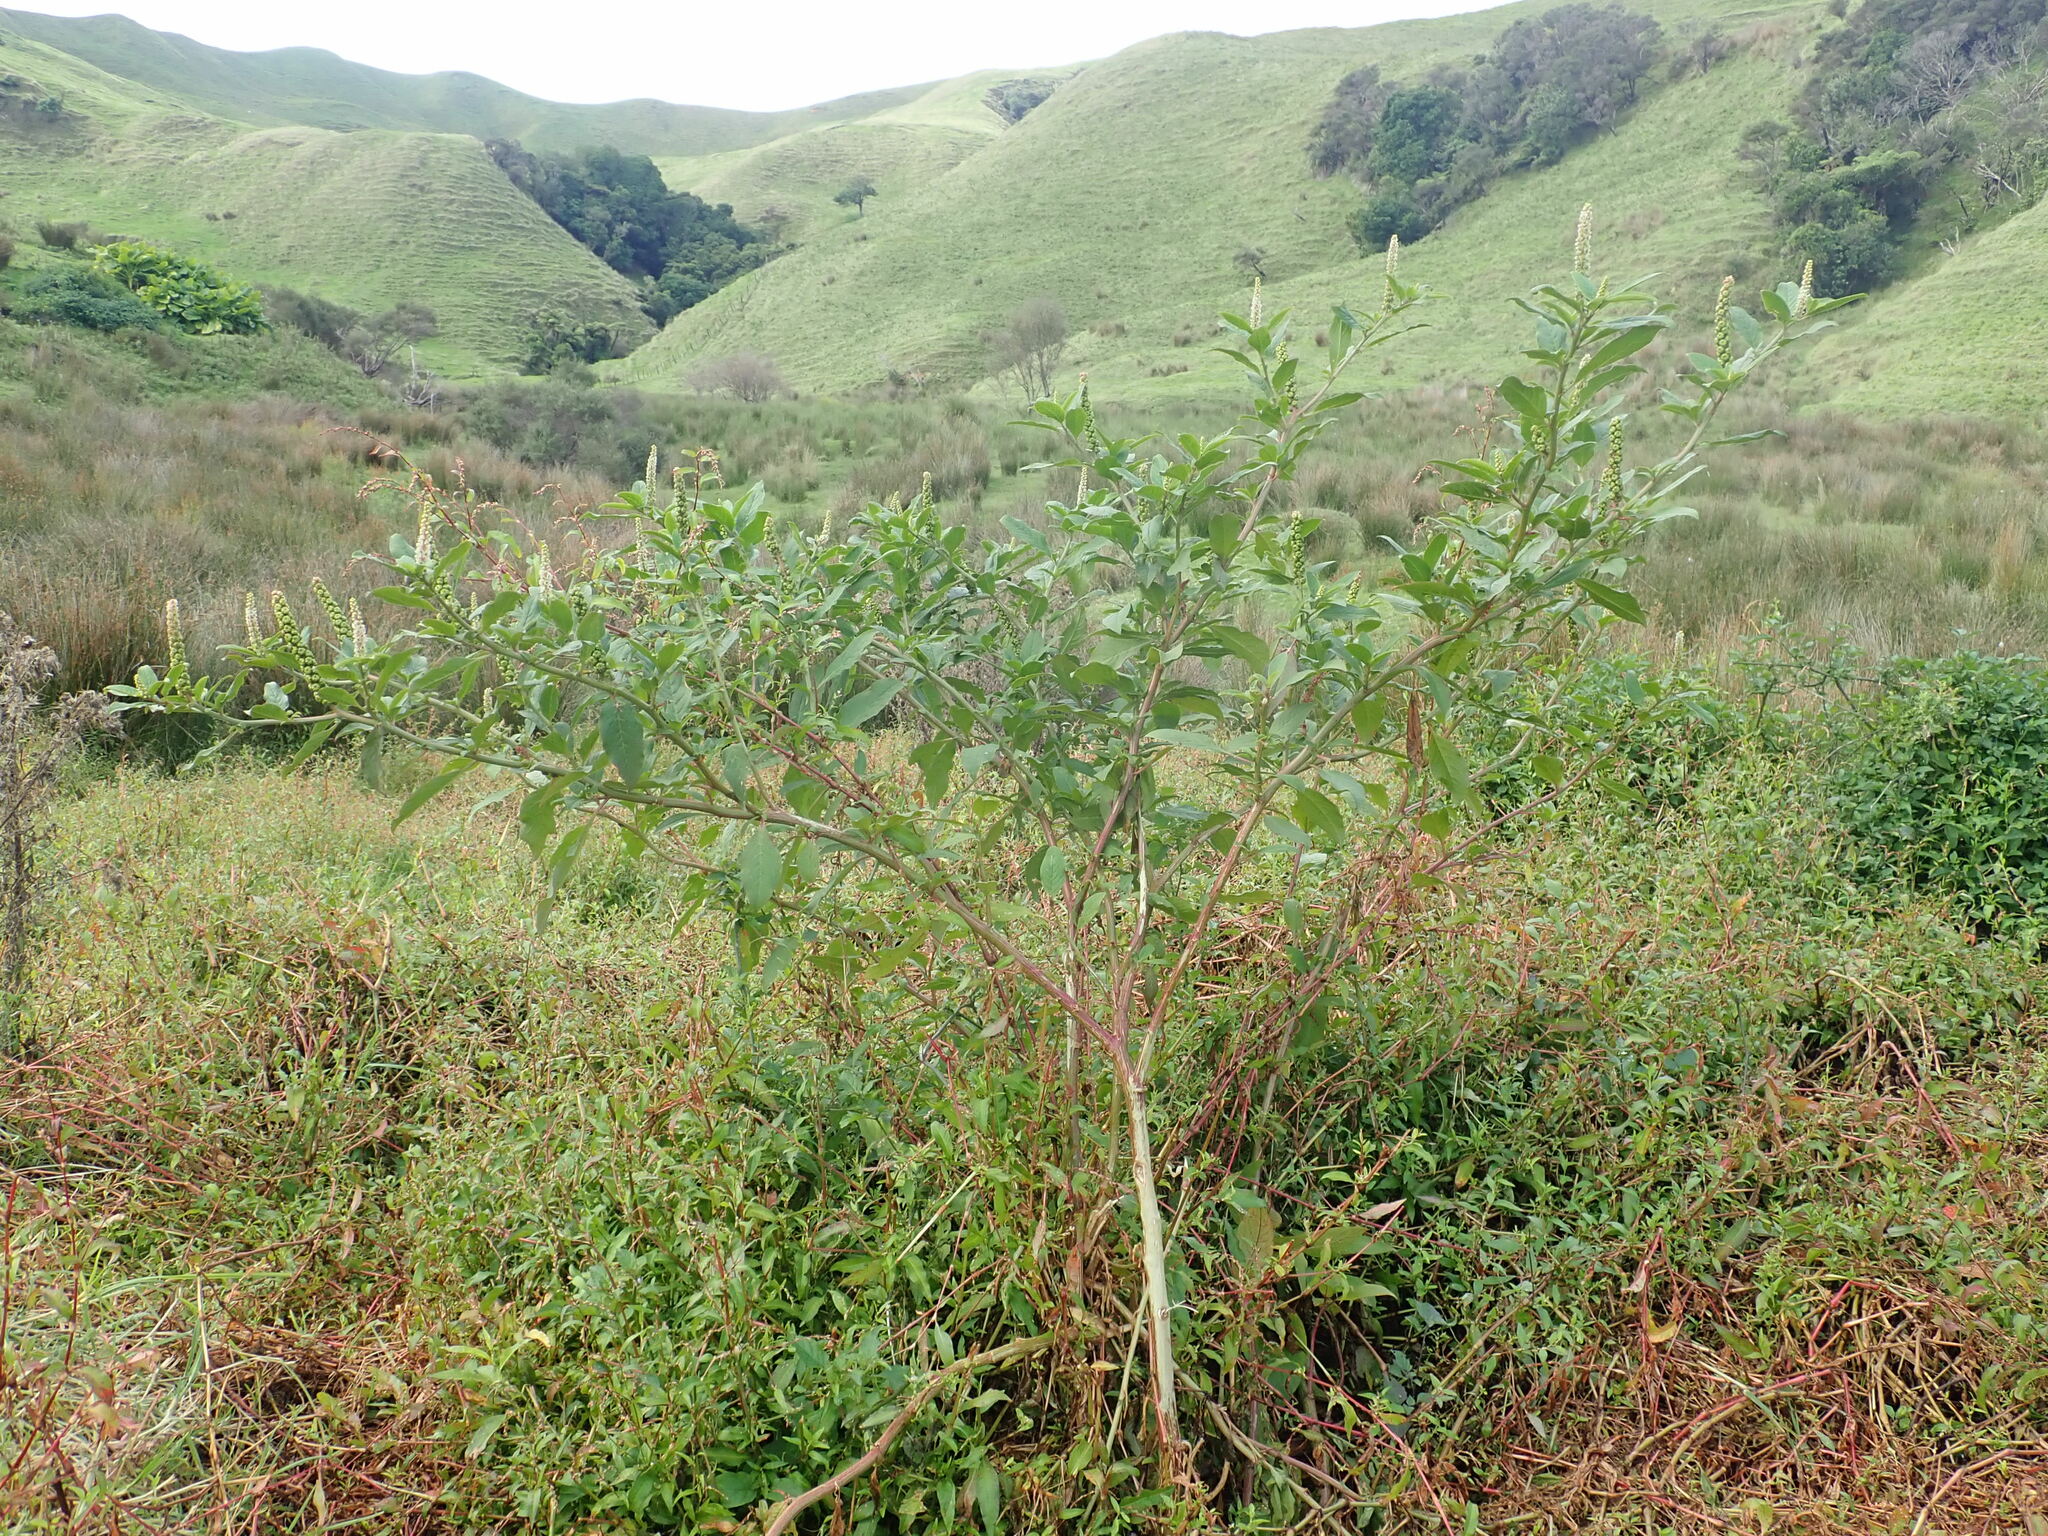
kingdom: Plantae
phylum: Tracheophyta
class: Magnoliopsida
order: Caryophyllales
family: Phytolaccaceae
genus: Phytolacca
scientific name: Phytolacca icosandra
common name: Button pokeweed
